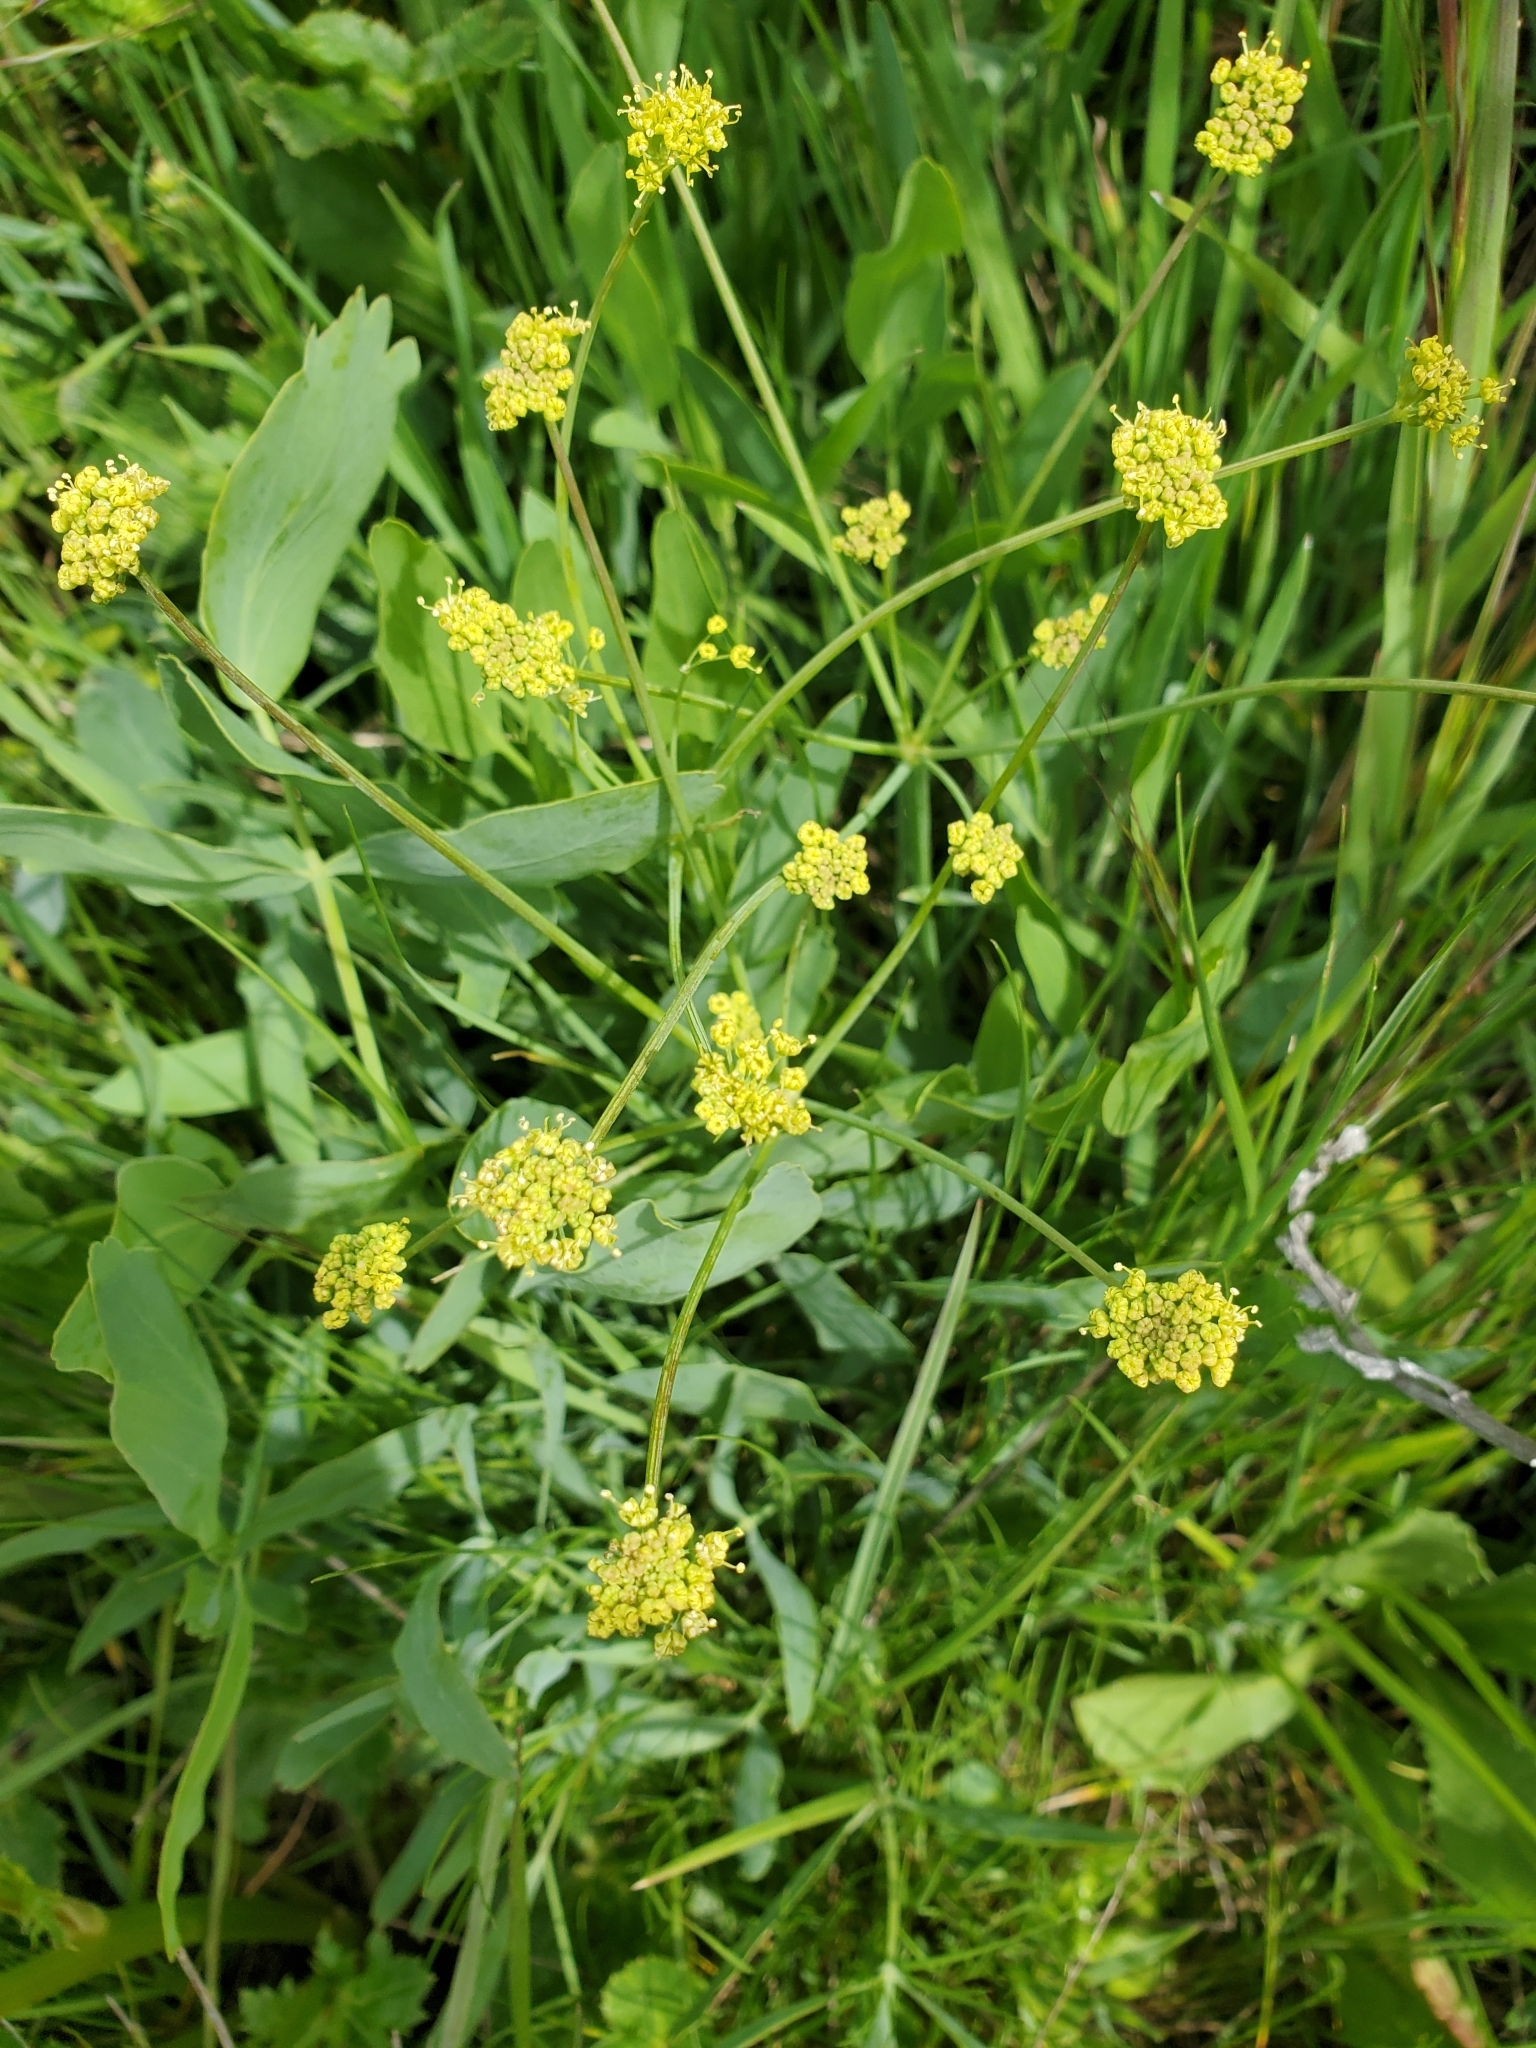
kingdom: Plantae
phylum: Tracheophyta
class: Magnoliopsida
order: Apiales
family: Apiaceae
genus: Lomatium
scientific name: Lomatium nudicaule
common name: Pestle lomatium
